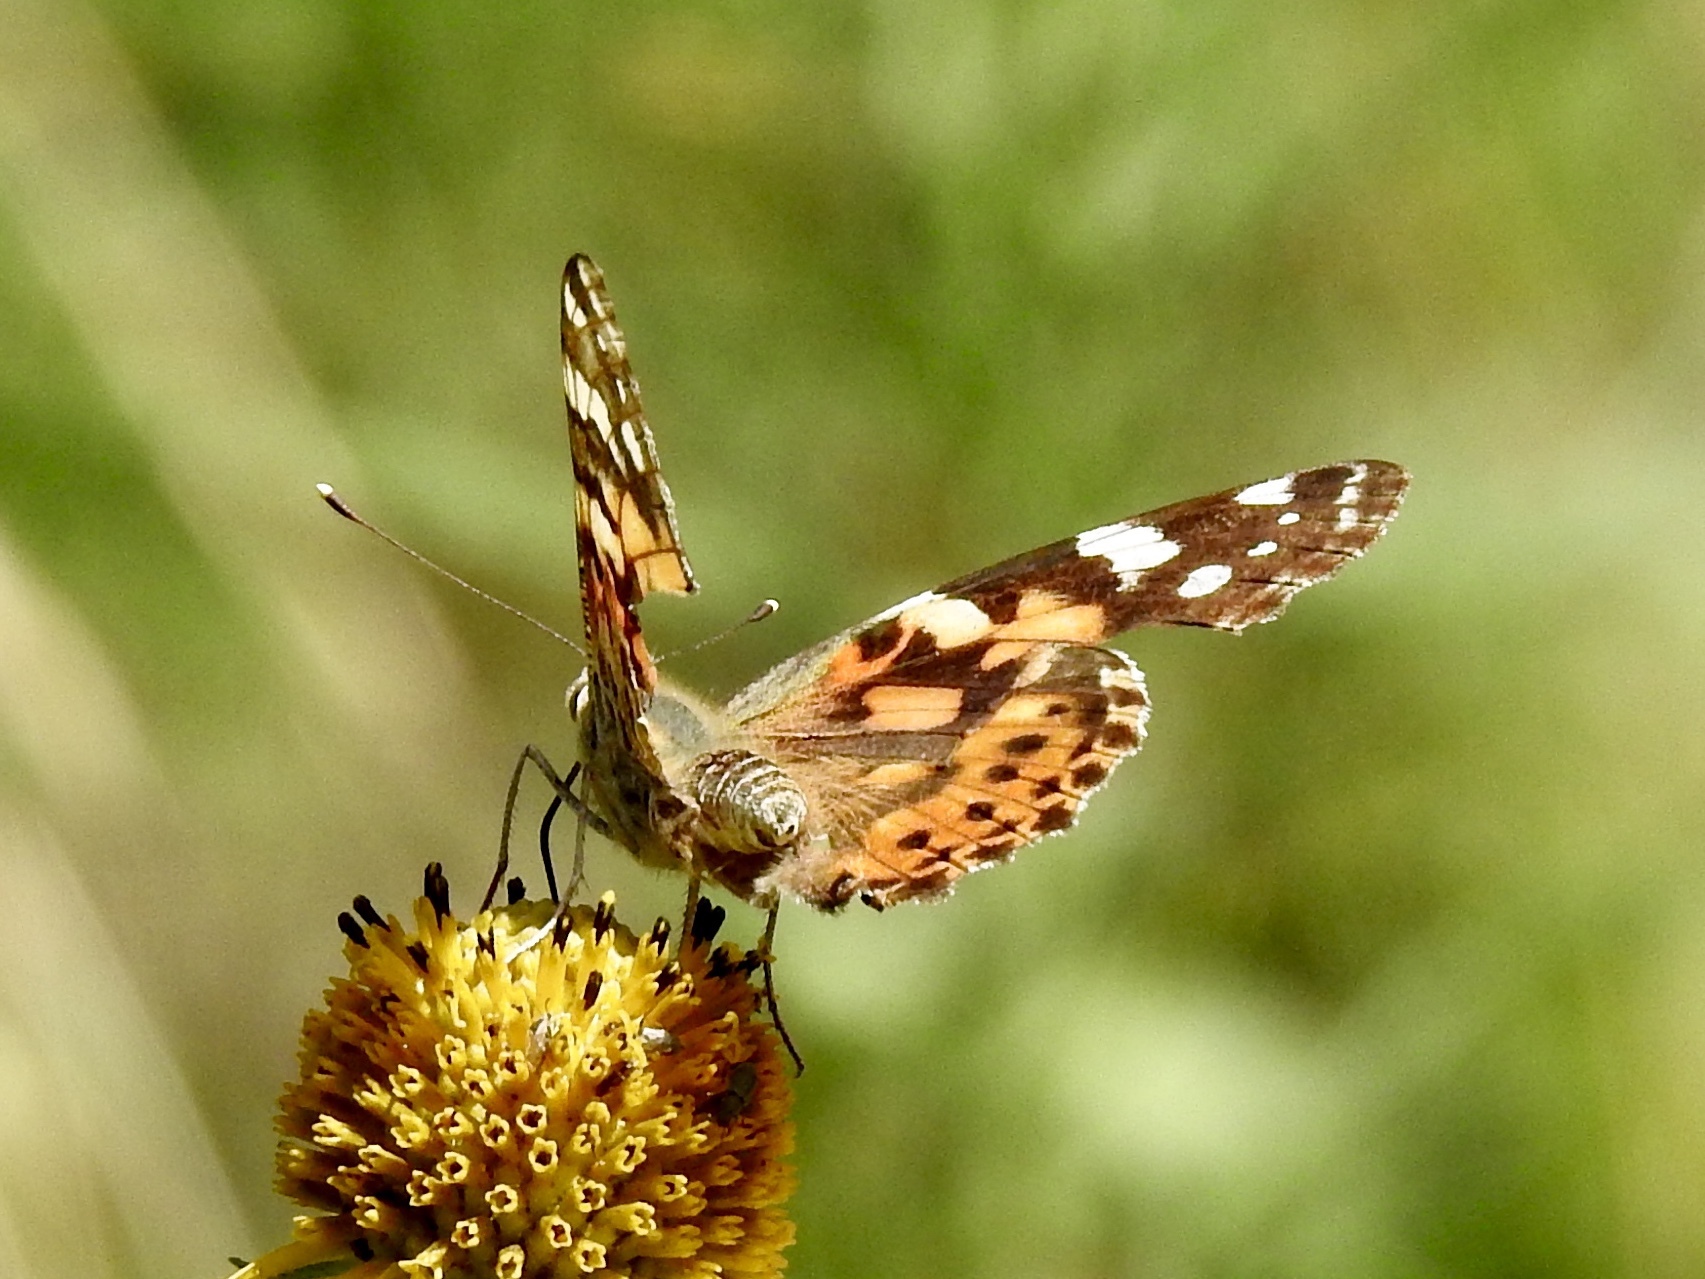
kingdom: Animalia
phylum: Arthropoda
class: Insecta
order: Lepidoptera
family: Nymphalidae
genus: Vanessa
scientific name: Vanessa cardui
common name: Painted lady
